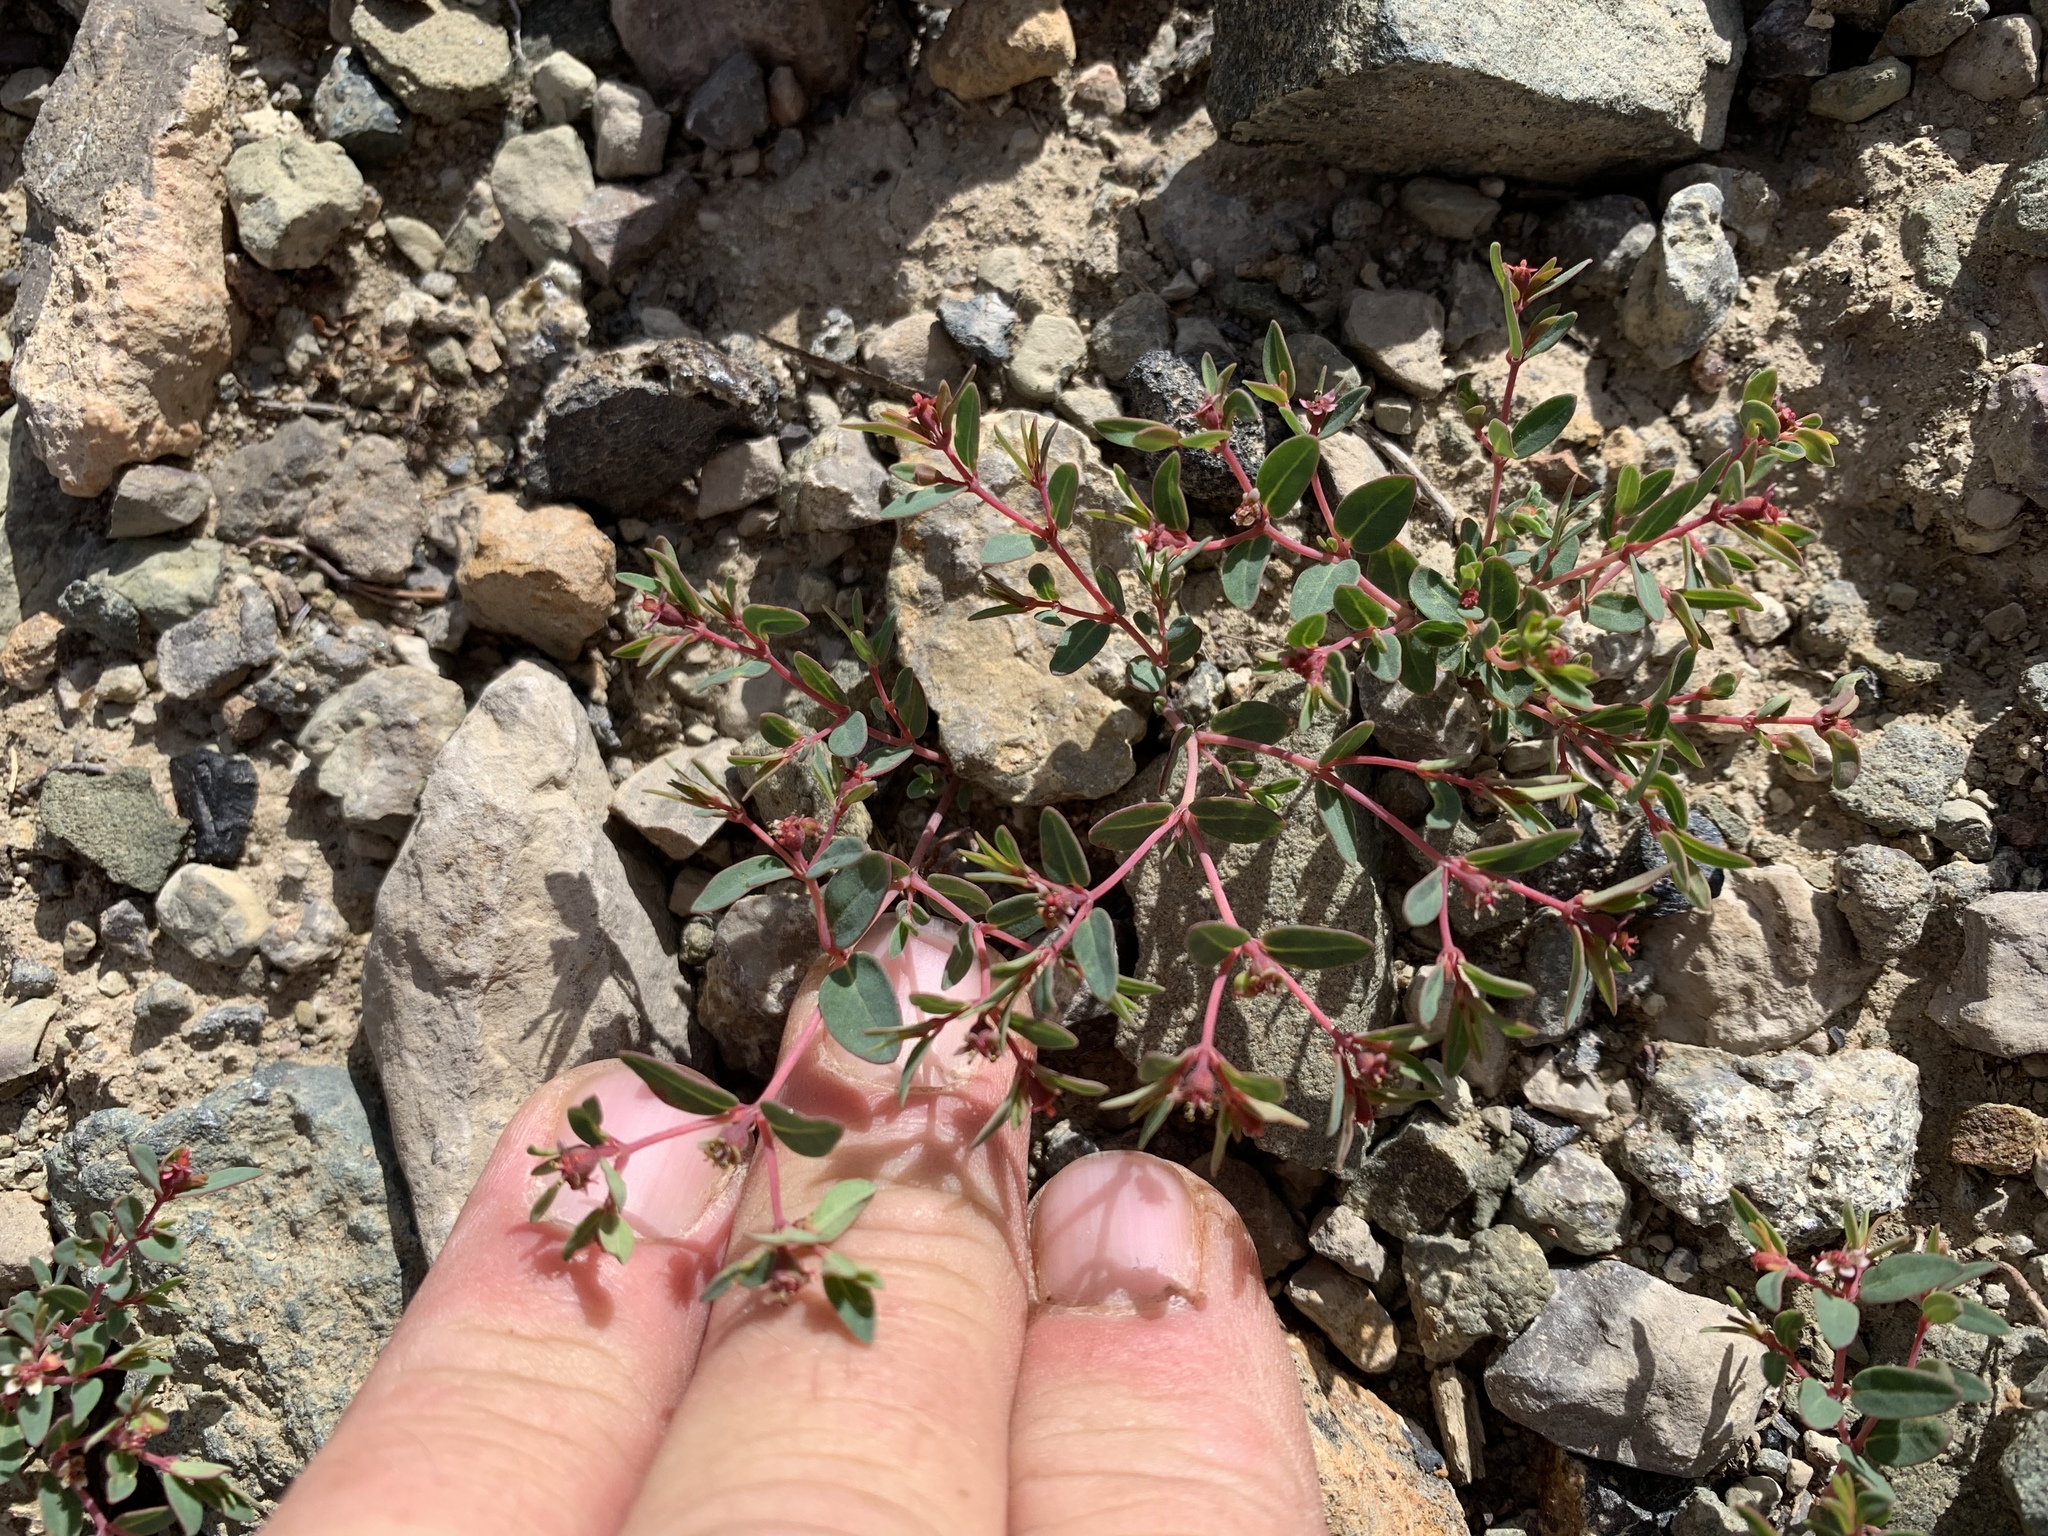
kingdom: Plantae
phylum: Tracheophyta
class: Magnoliopsida
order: Malpighiales
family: Euphorbiaceae
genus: Euphorbia
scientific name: Euphorbia fendleri
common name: Fendler's euphorbia
